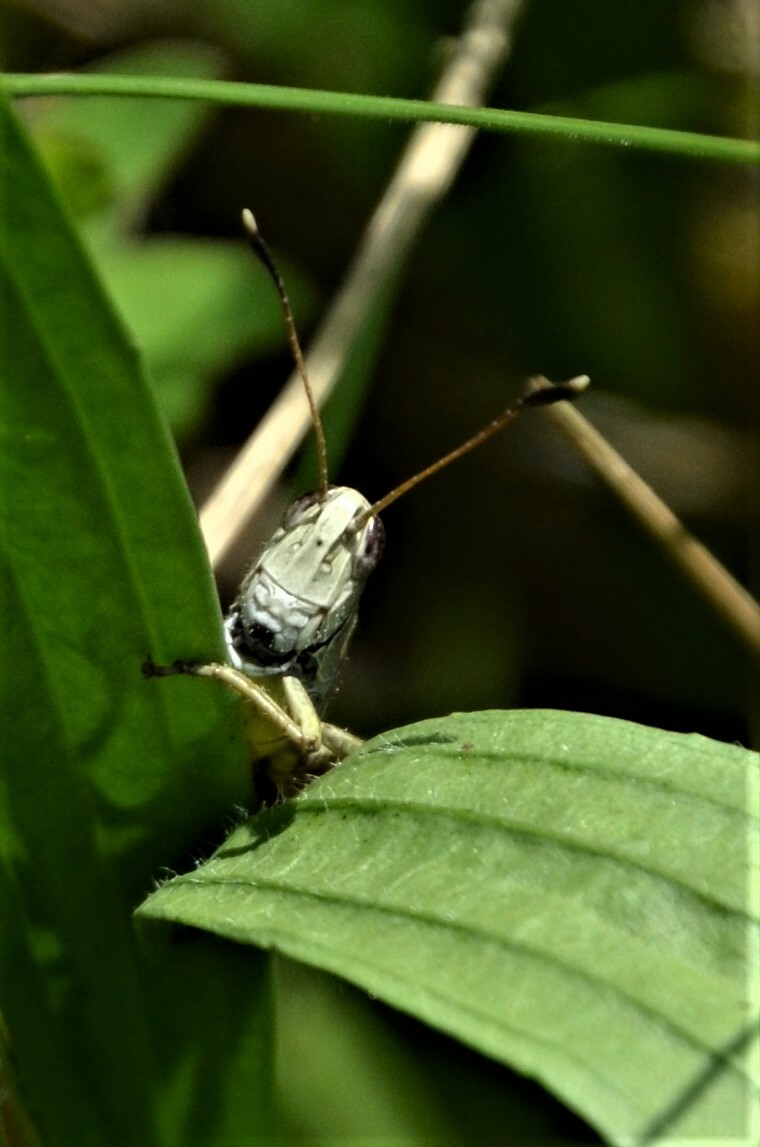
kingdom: Animalia
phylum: Arthropoda
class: Insecta
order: Orthoptera
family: Acrididae
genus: Gomphocerippus
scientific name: Gomphocerippus rufus
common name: Rufous grasshopper
